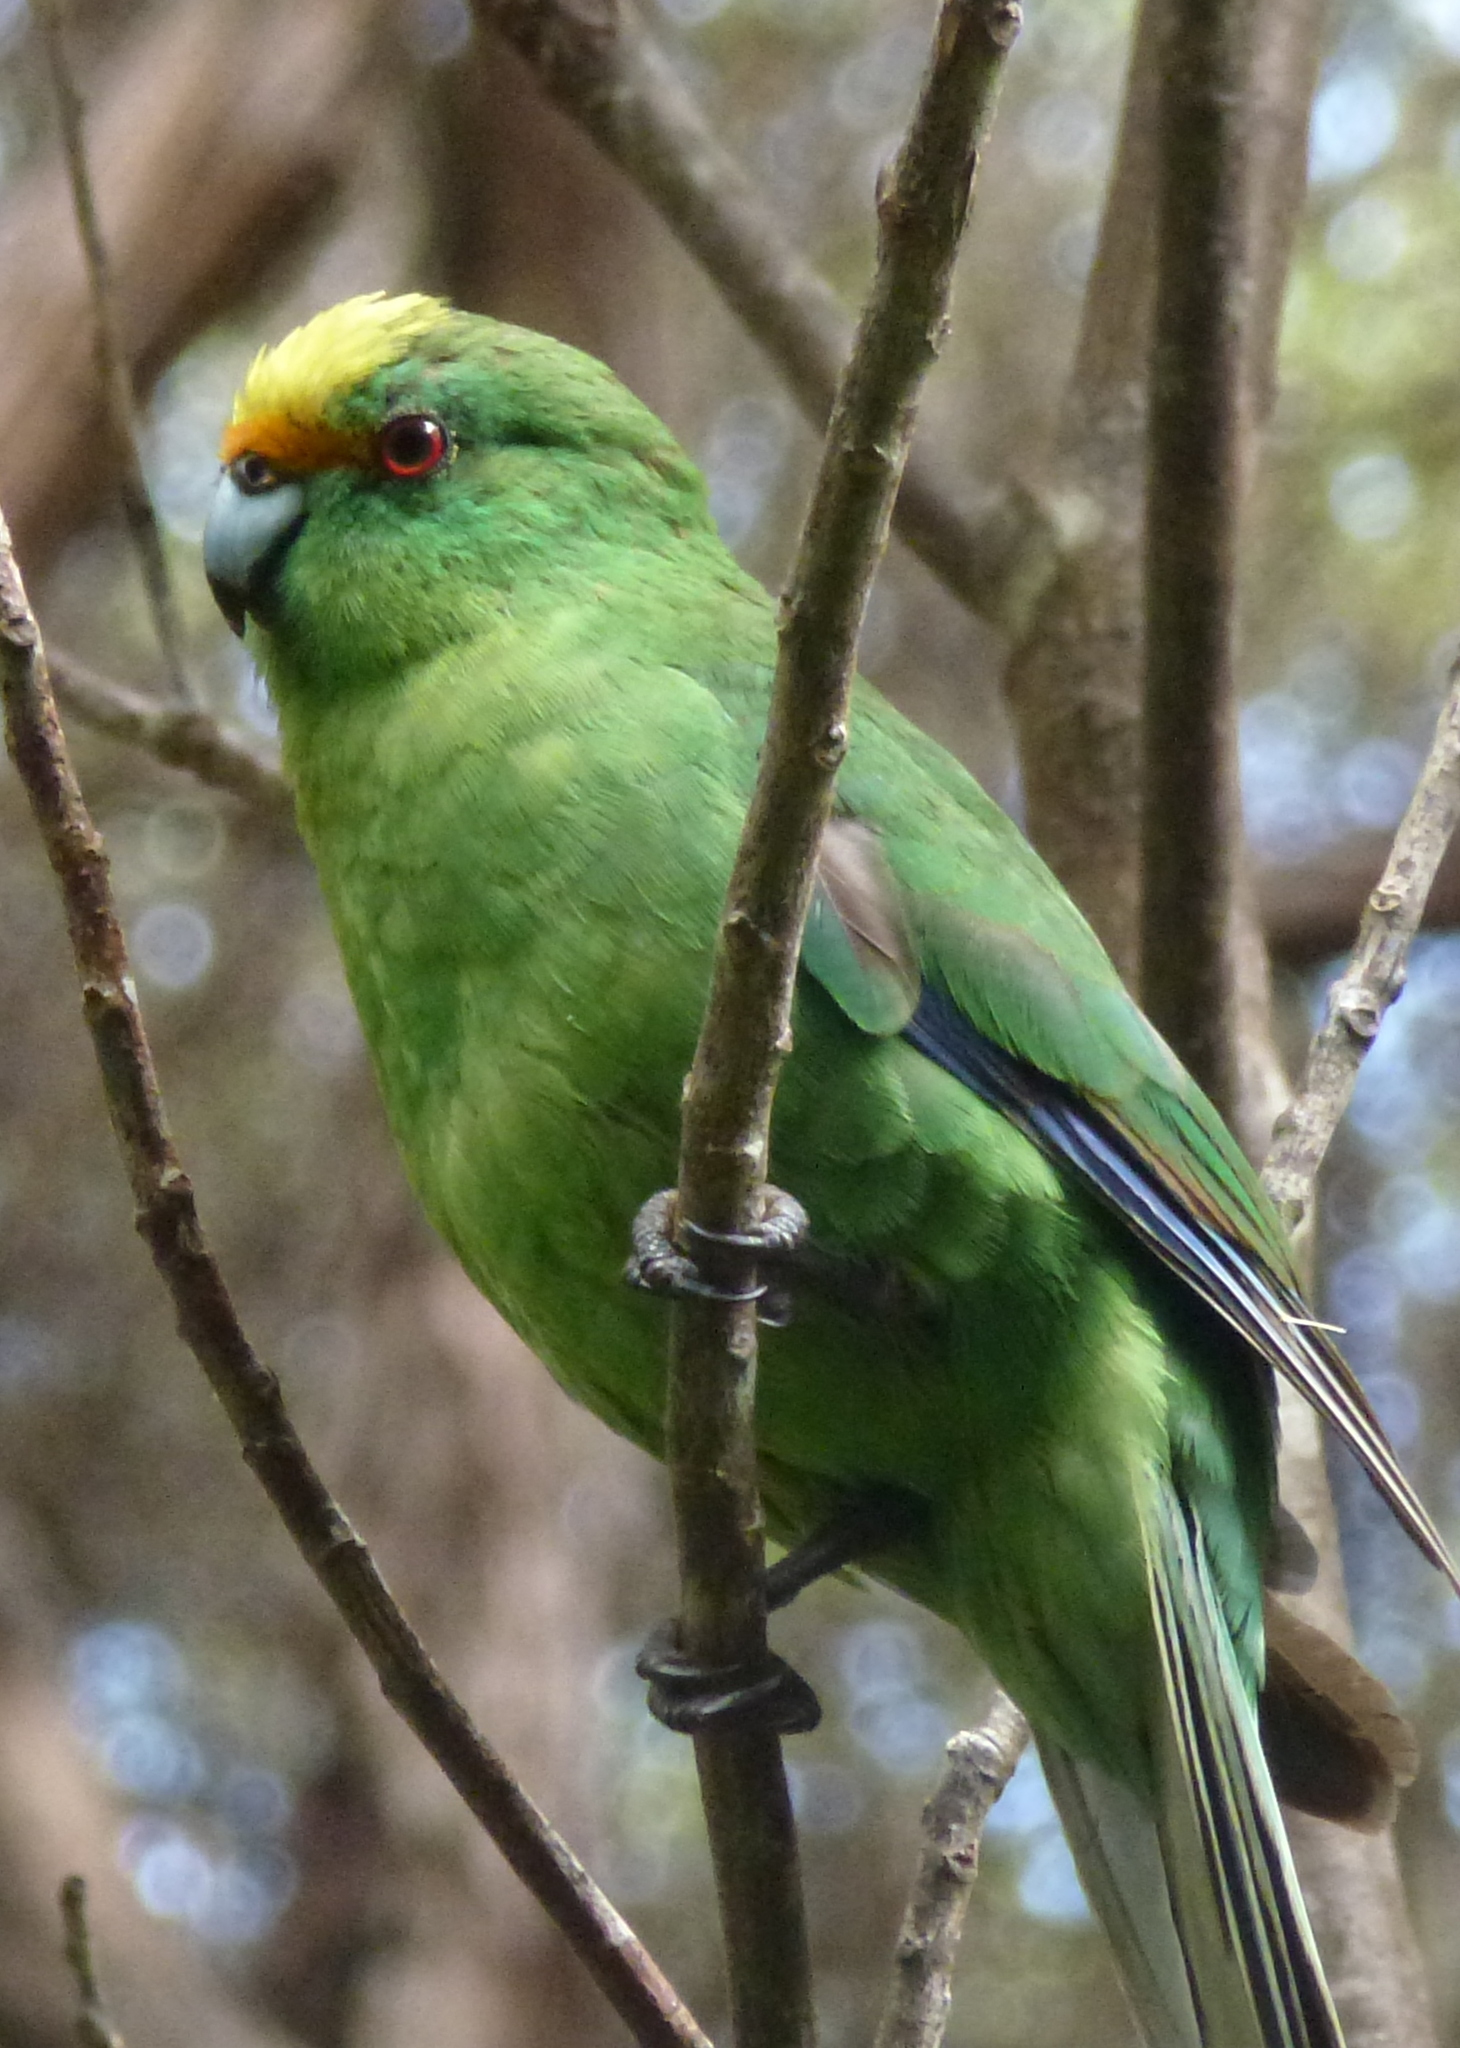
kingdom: Animalia
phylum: Chordata
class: Aves
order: Psittaciformes
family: Psittacidae
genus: Cyanoramphus
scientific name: Cyanoramphus malherbi
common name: Malherbe's parakeet
